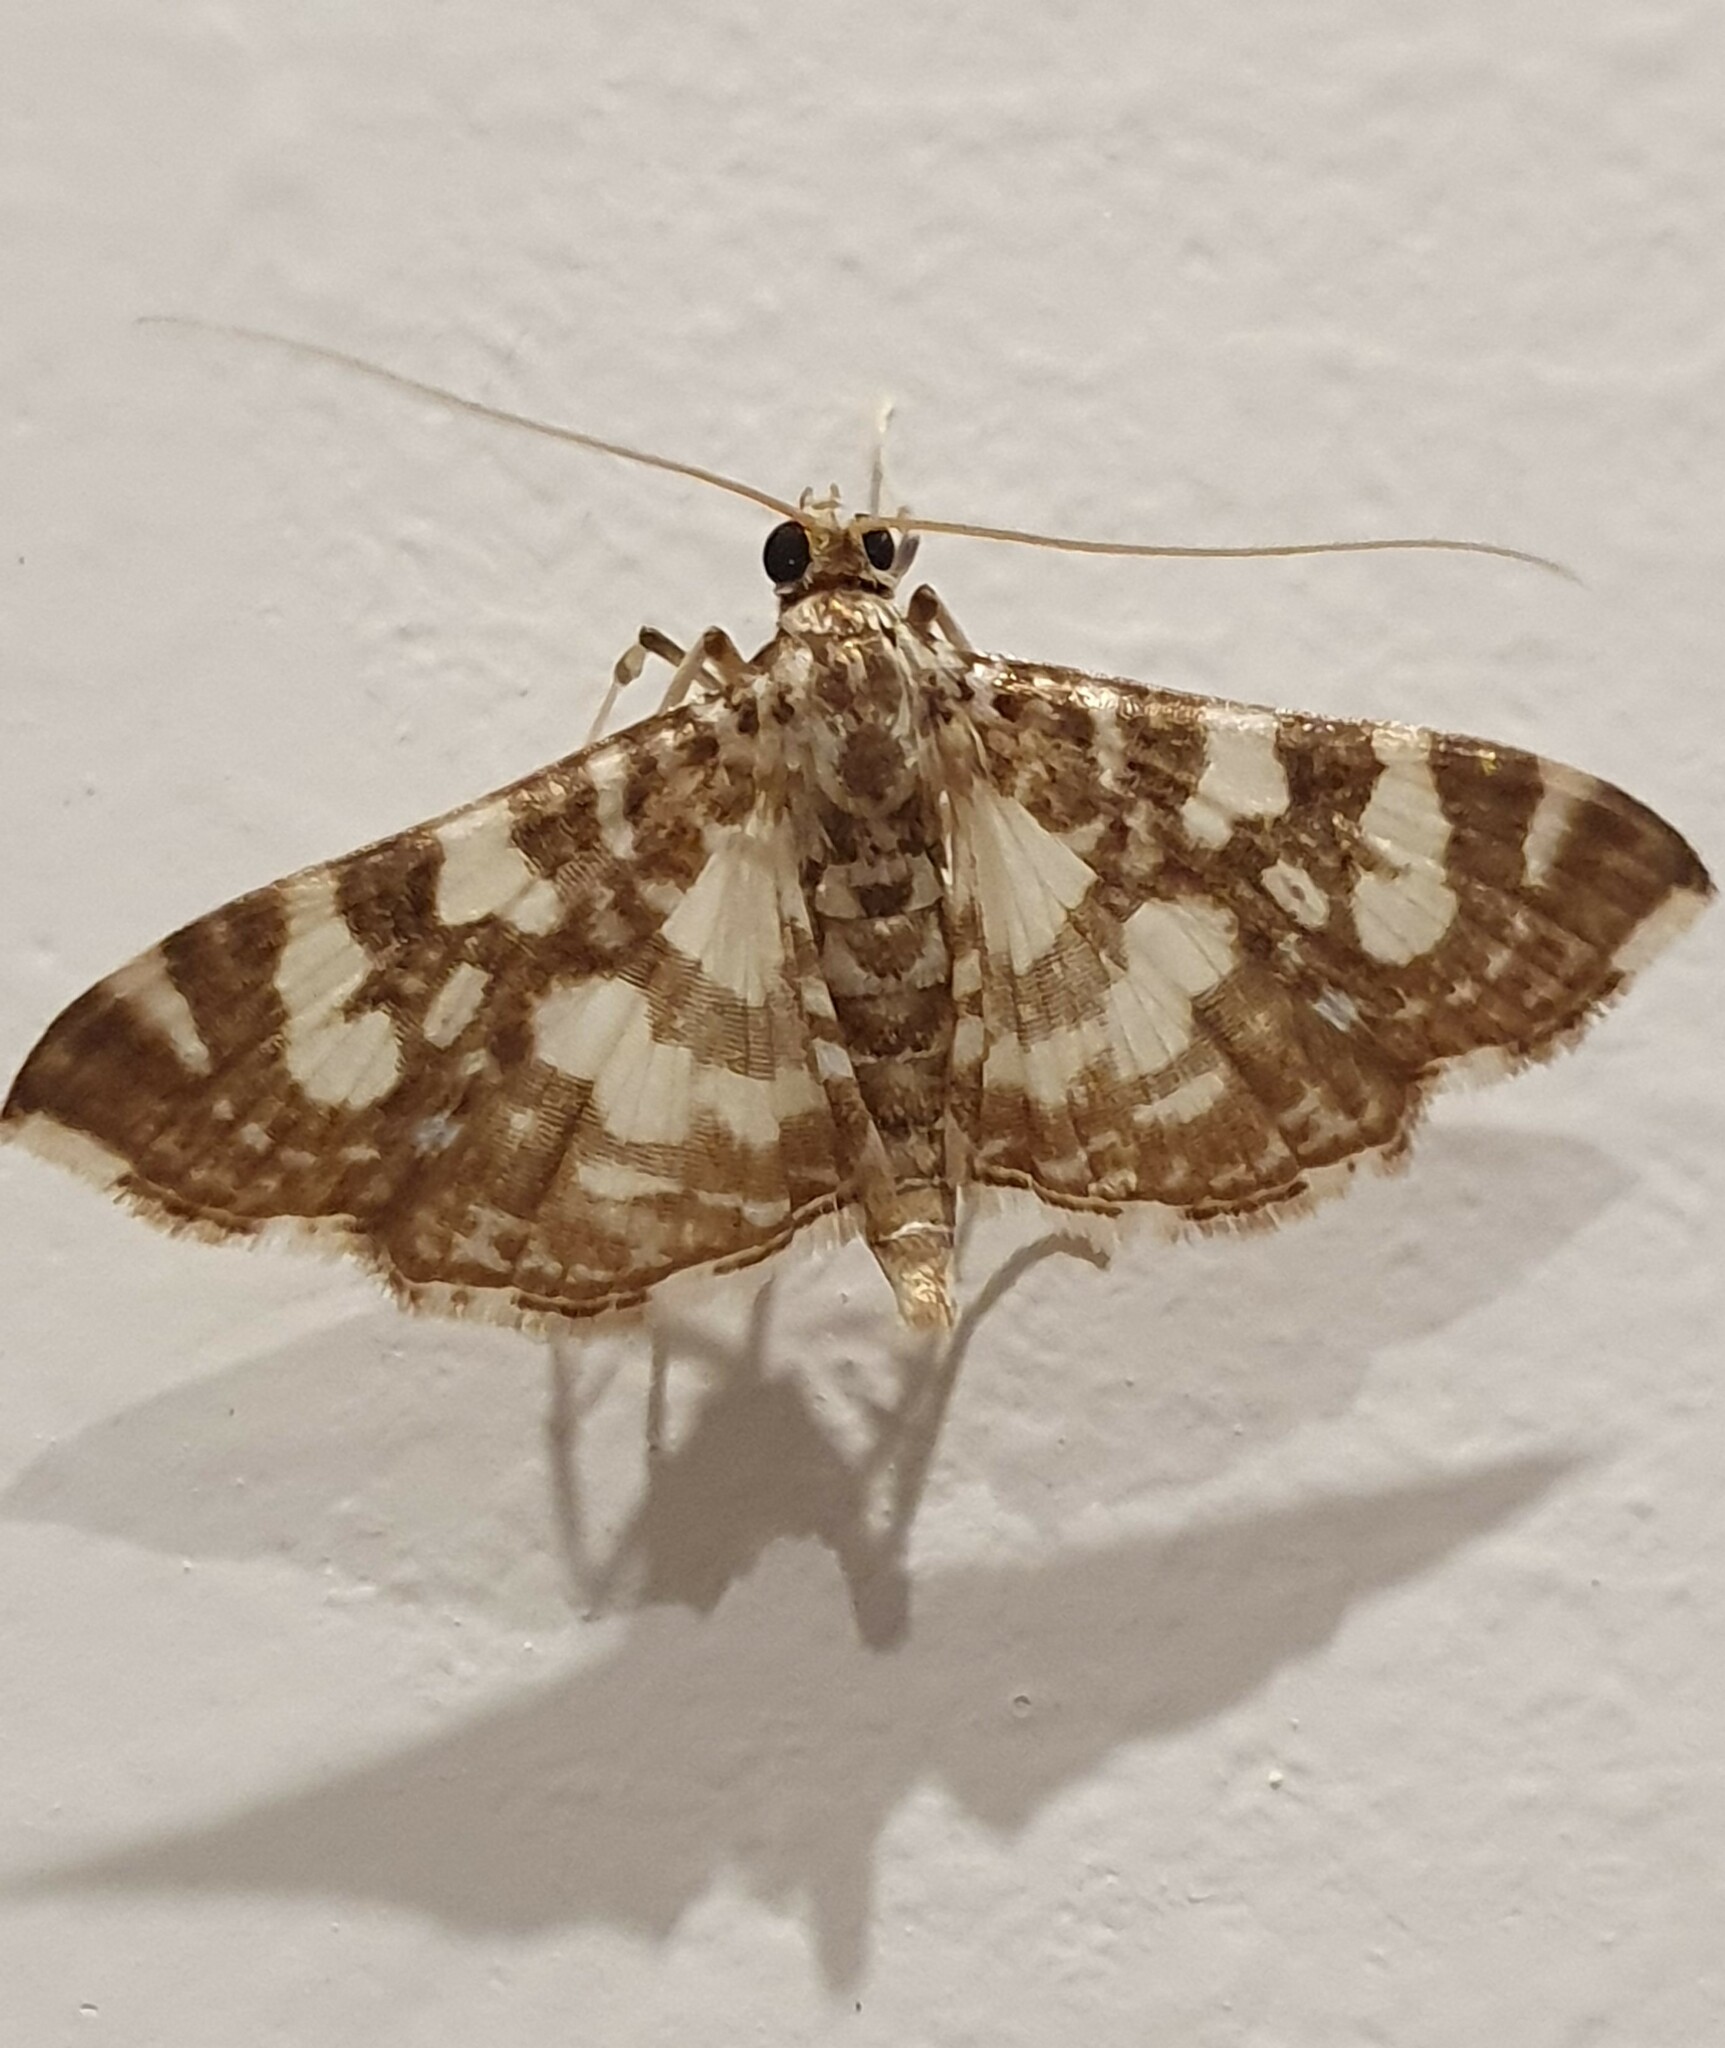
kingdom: Animalia
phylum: Arthropoda
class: Insecta
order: Lepidoptera
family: Crambidae
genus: Glyphodes
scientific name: Glyphodes onychinalis
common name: Swan plant moth
